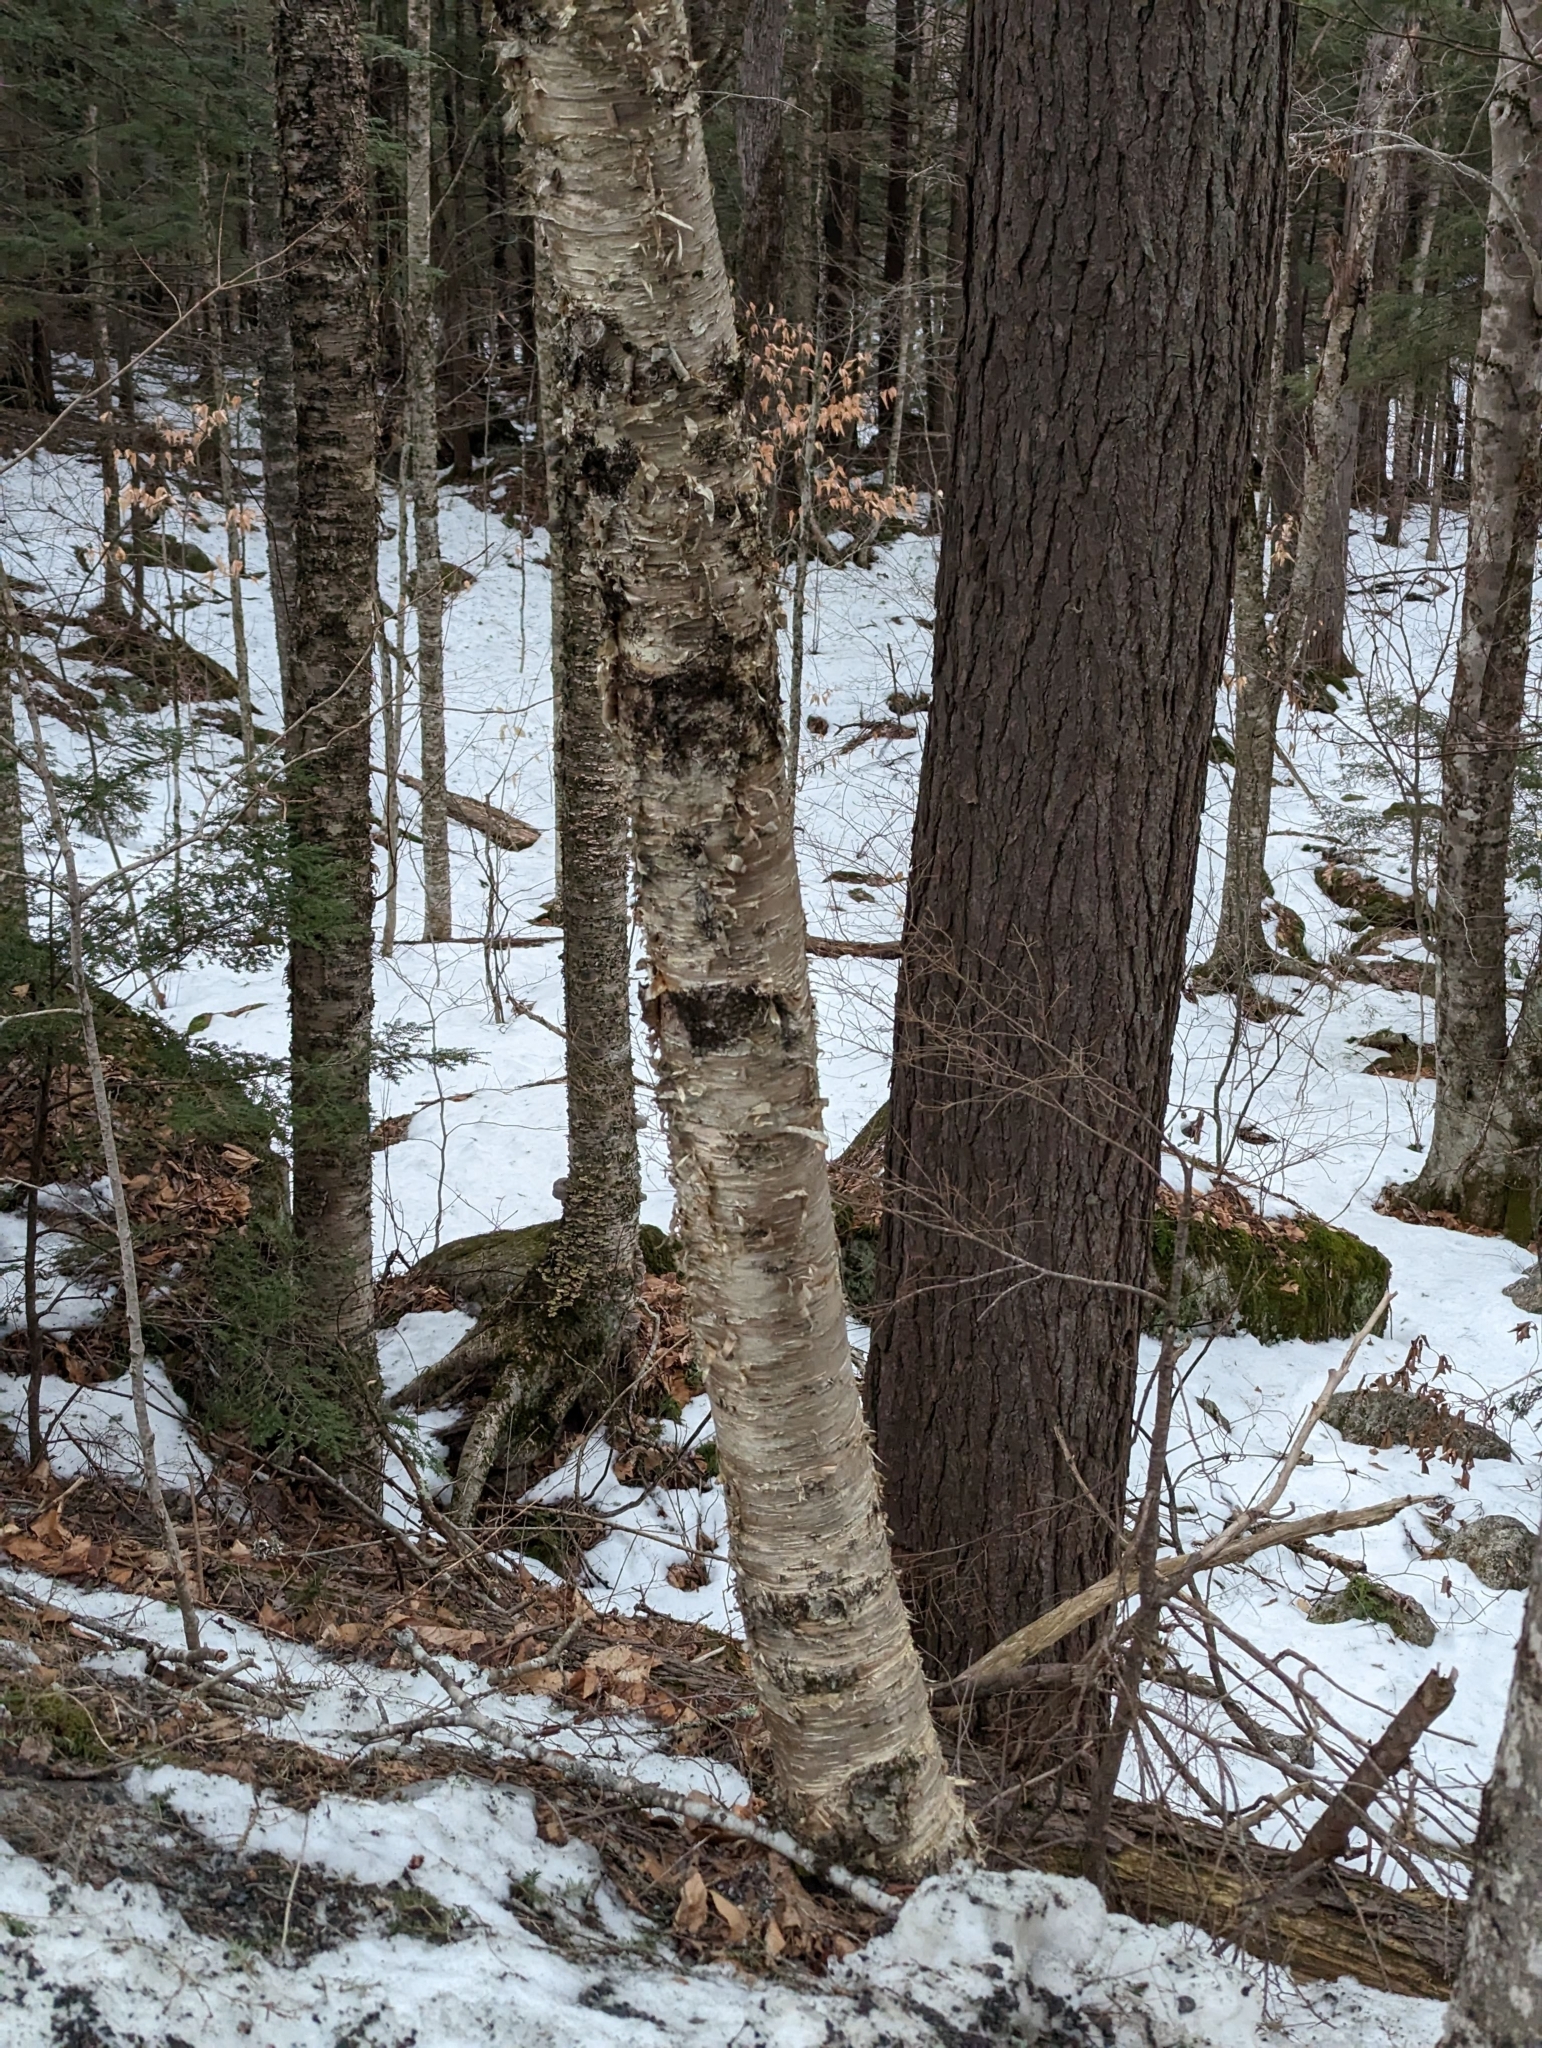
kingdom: Plantae
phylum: Tracheophyta
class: Magnoliopsida
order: Fagales
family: Betulaceae
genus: Betula
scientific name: Betula alleghaniensis
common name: Yellow birch
